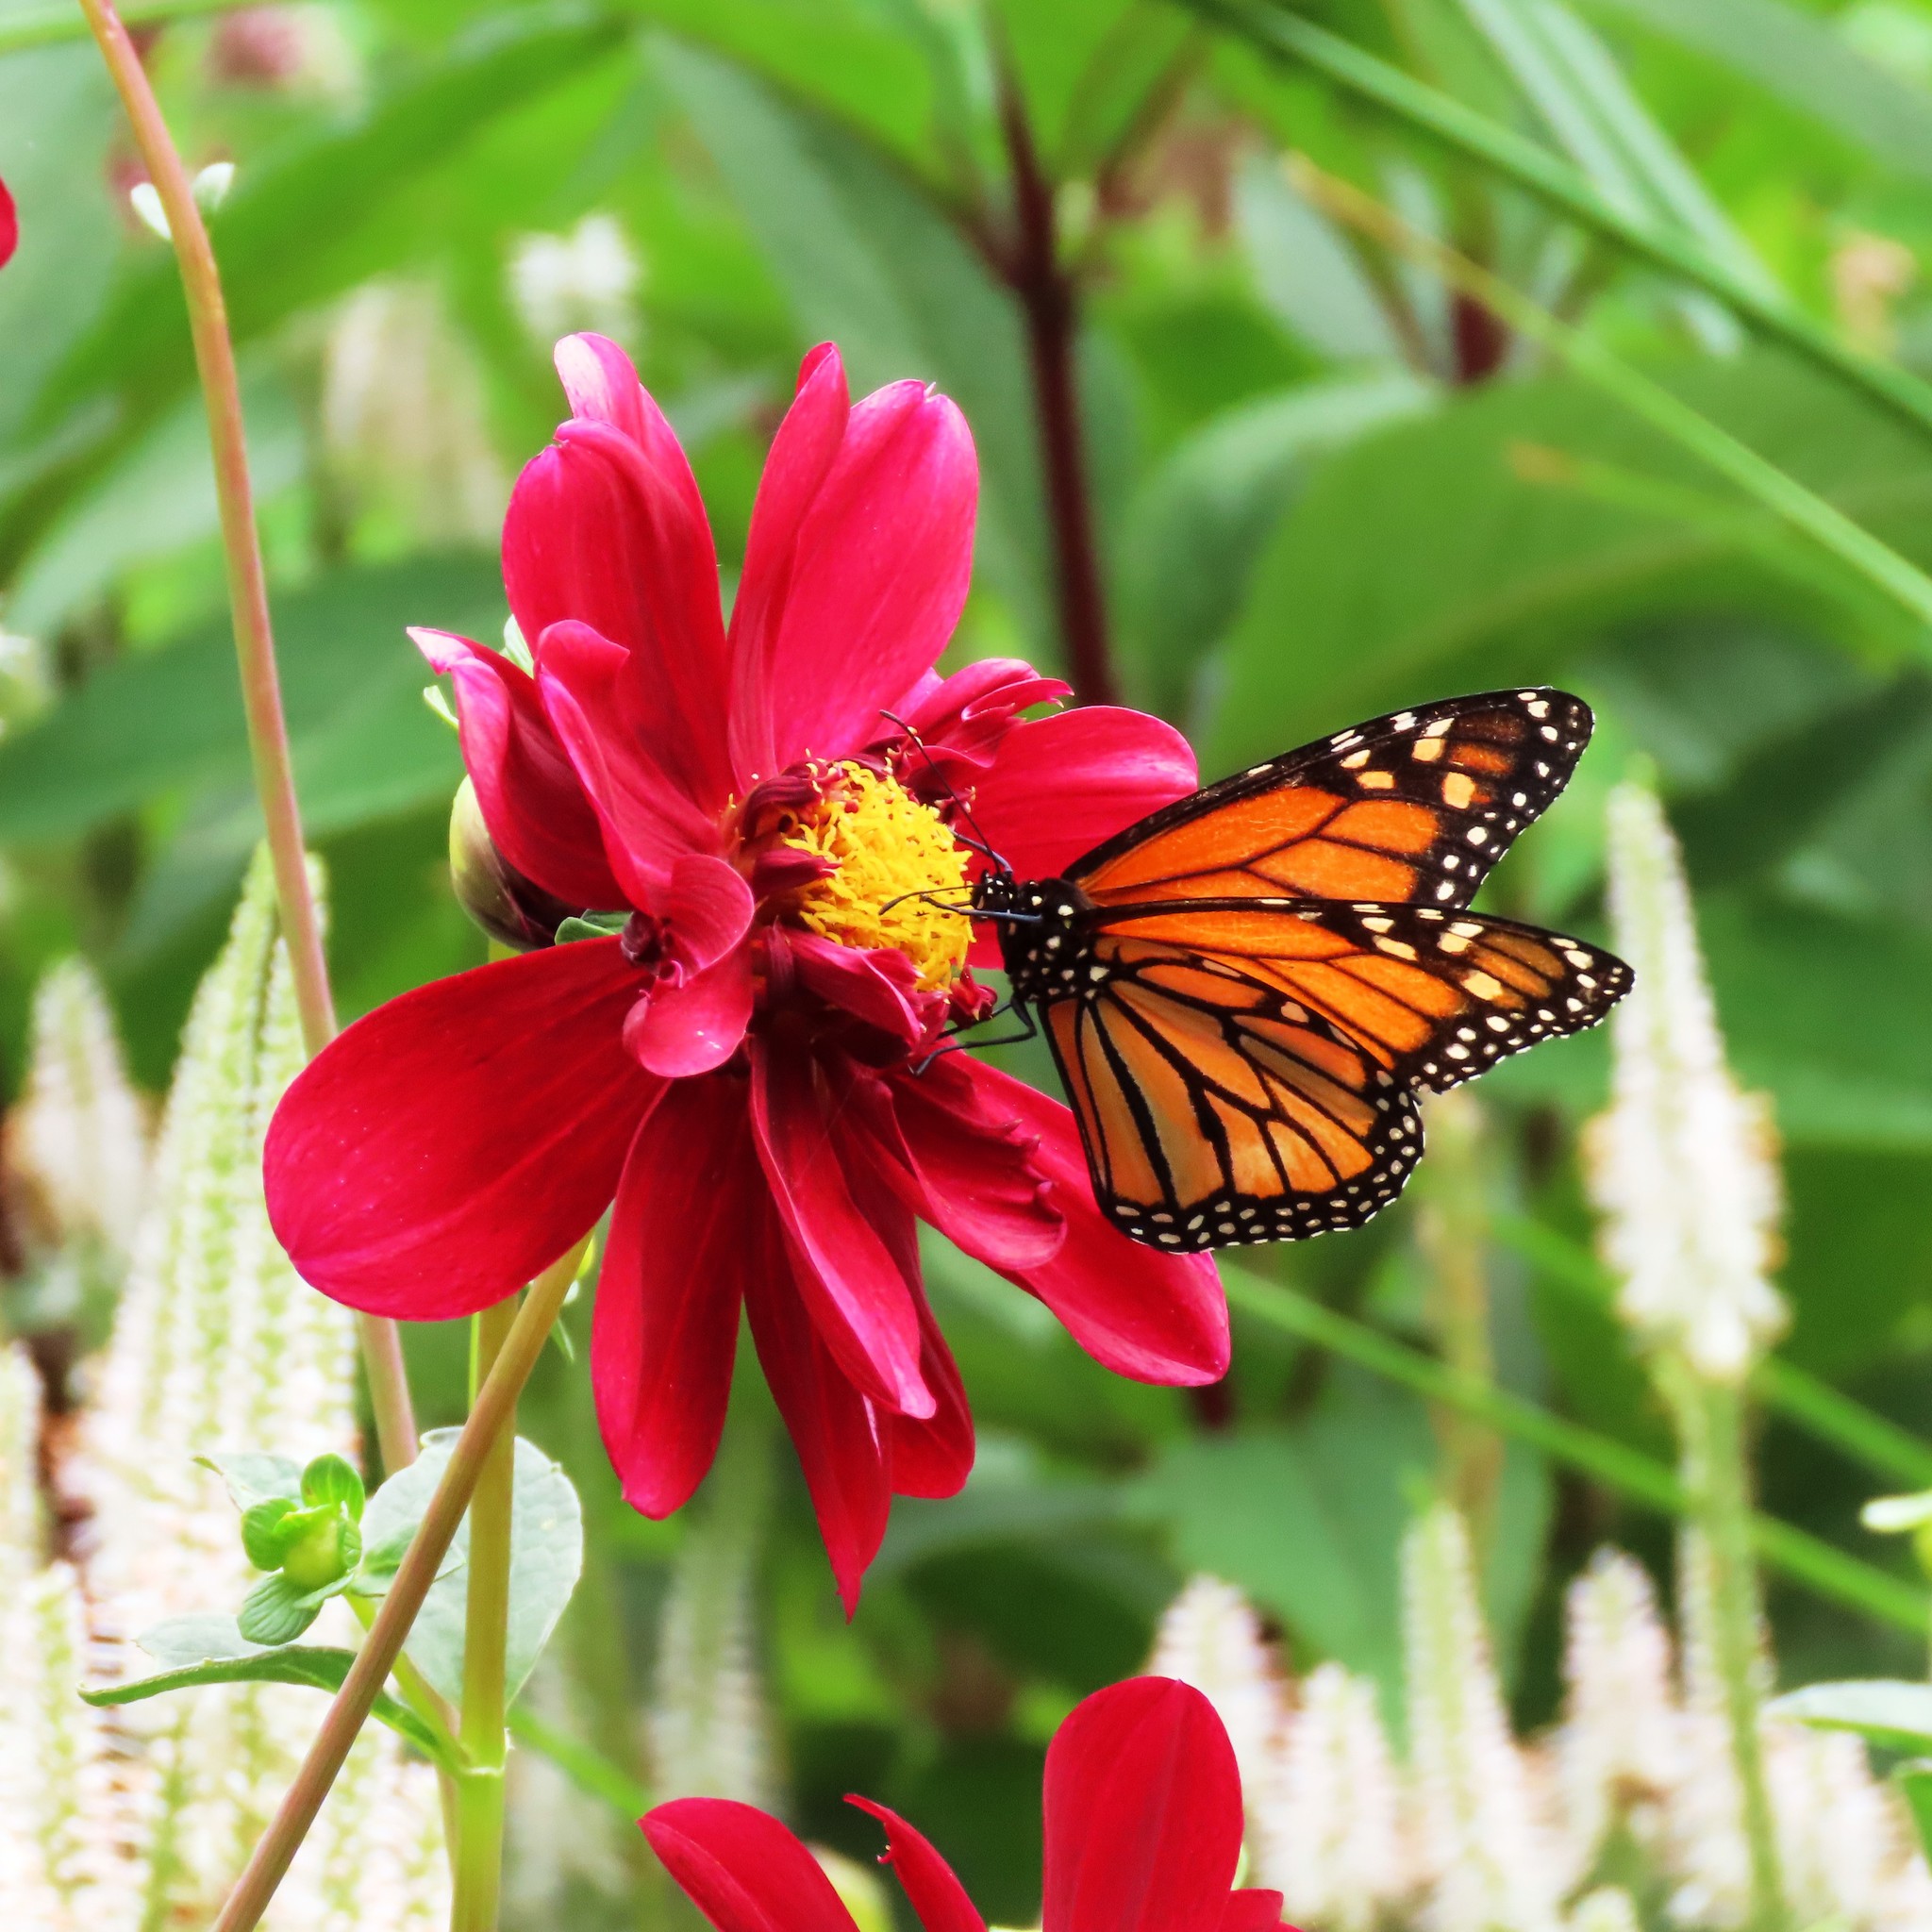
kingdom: Animalia
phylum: Arthropoda
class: Insecta
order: Lepidoptera
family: Nymphalidae
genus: Danaus
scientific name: Danaus plexippus
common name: Monarch
